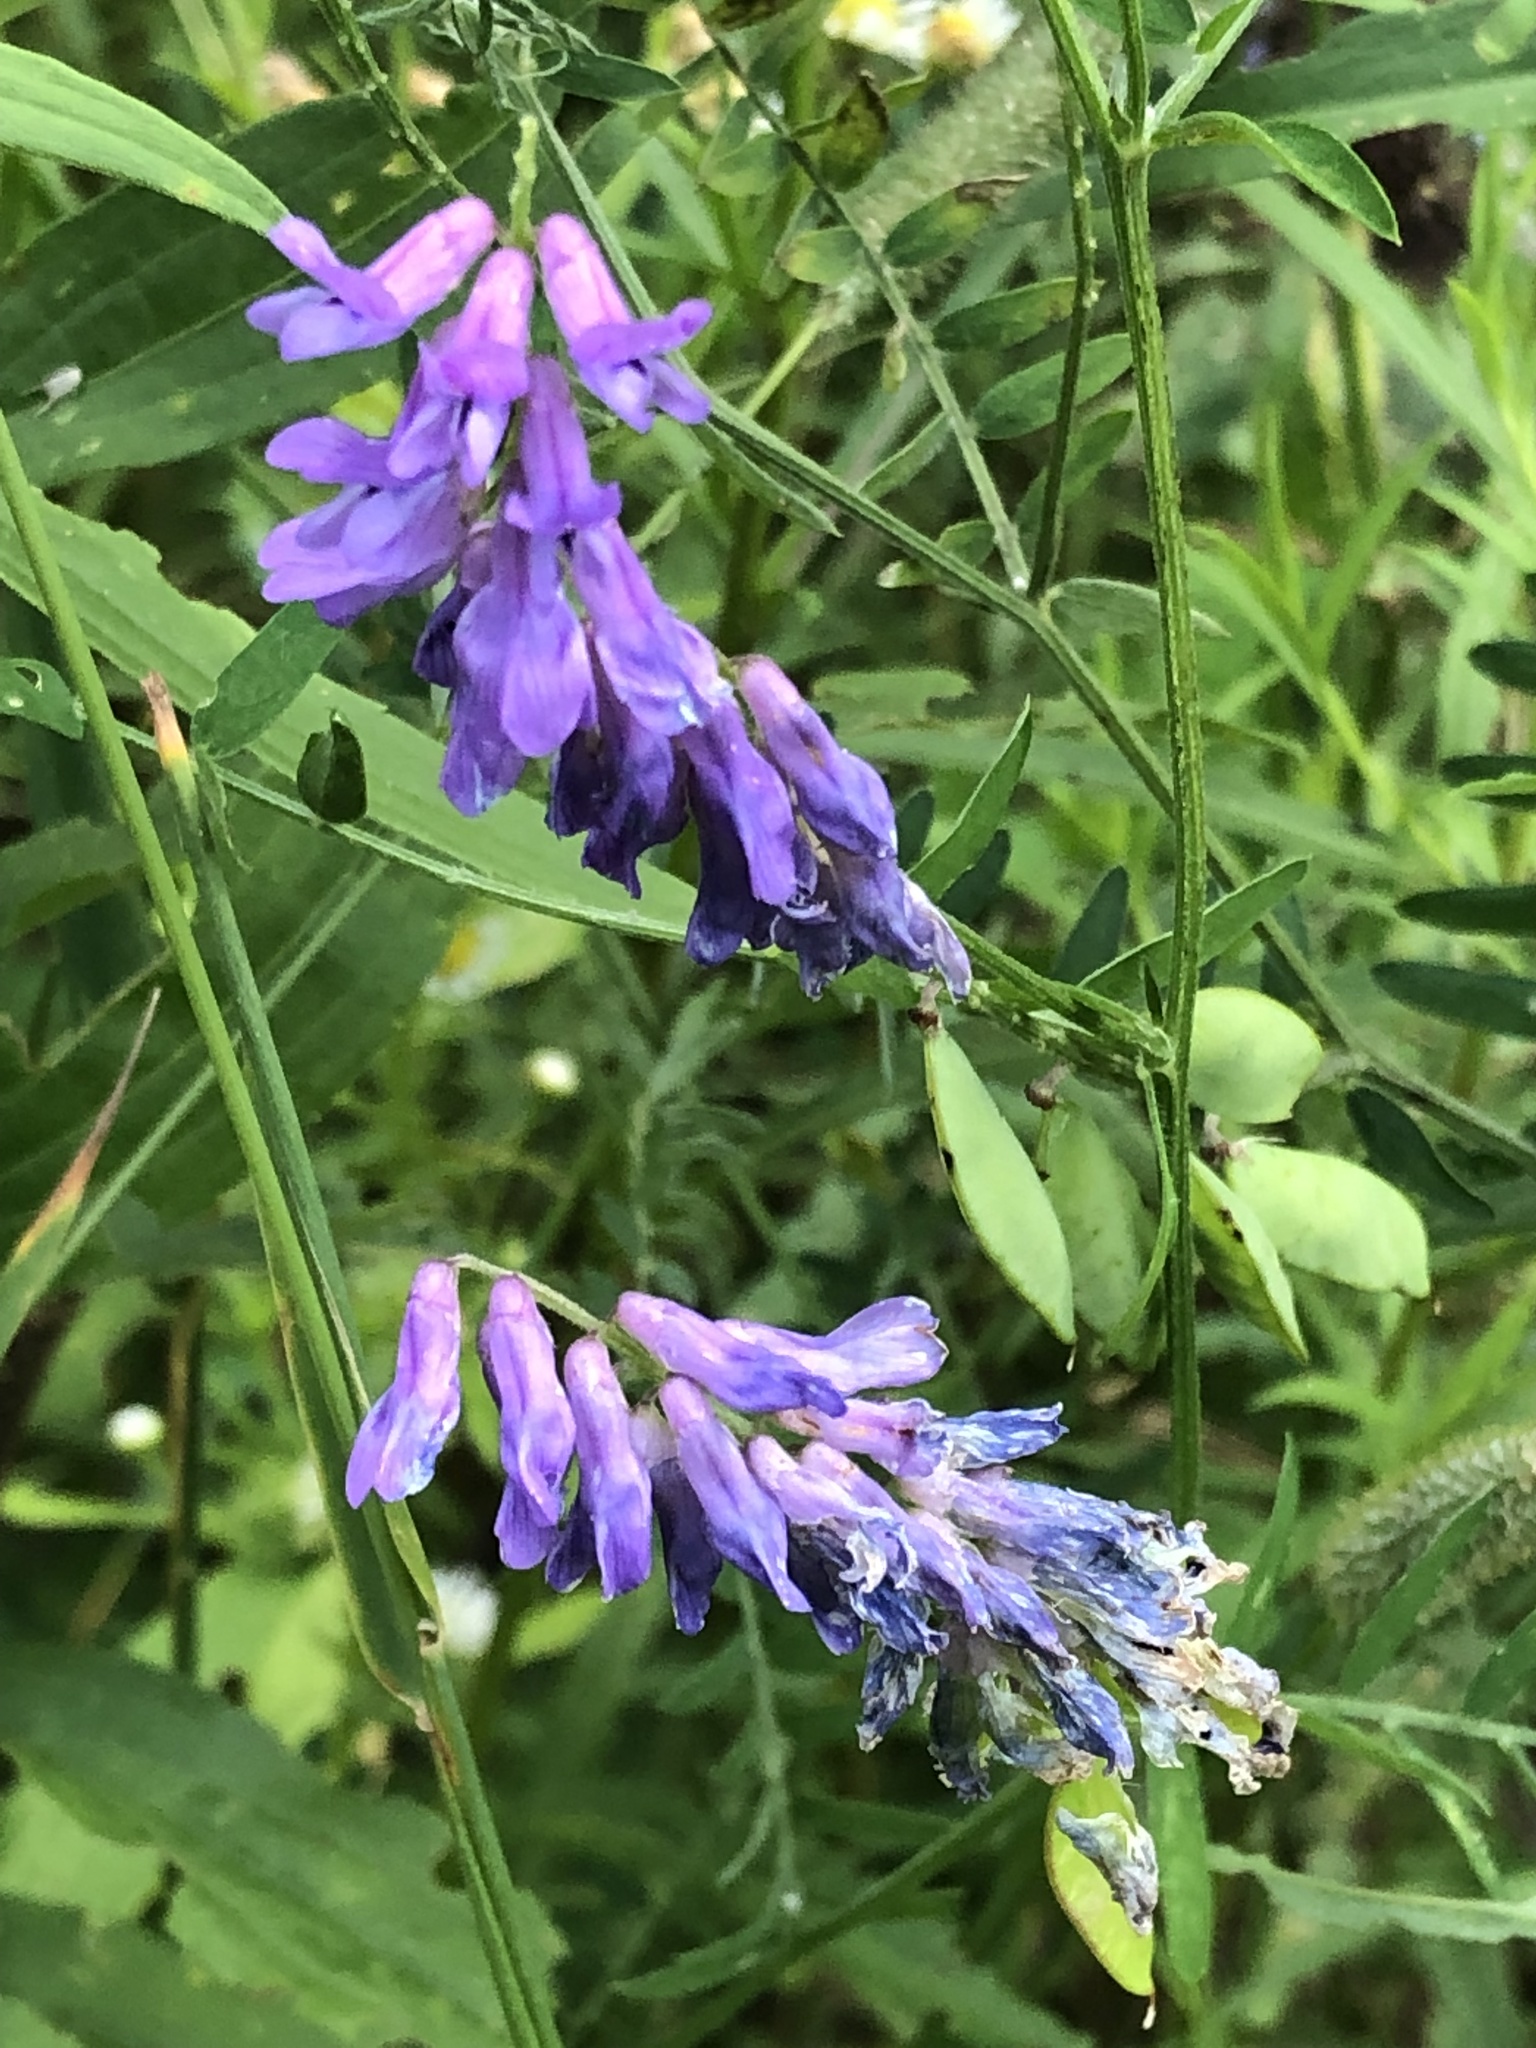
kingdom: Plantae
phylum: Tracheophyta
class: Magnoliopsida
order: Fabales
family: Fabaceae
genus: Vicia
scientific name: Vicia cracca
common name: Bird vetch
